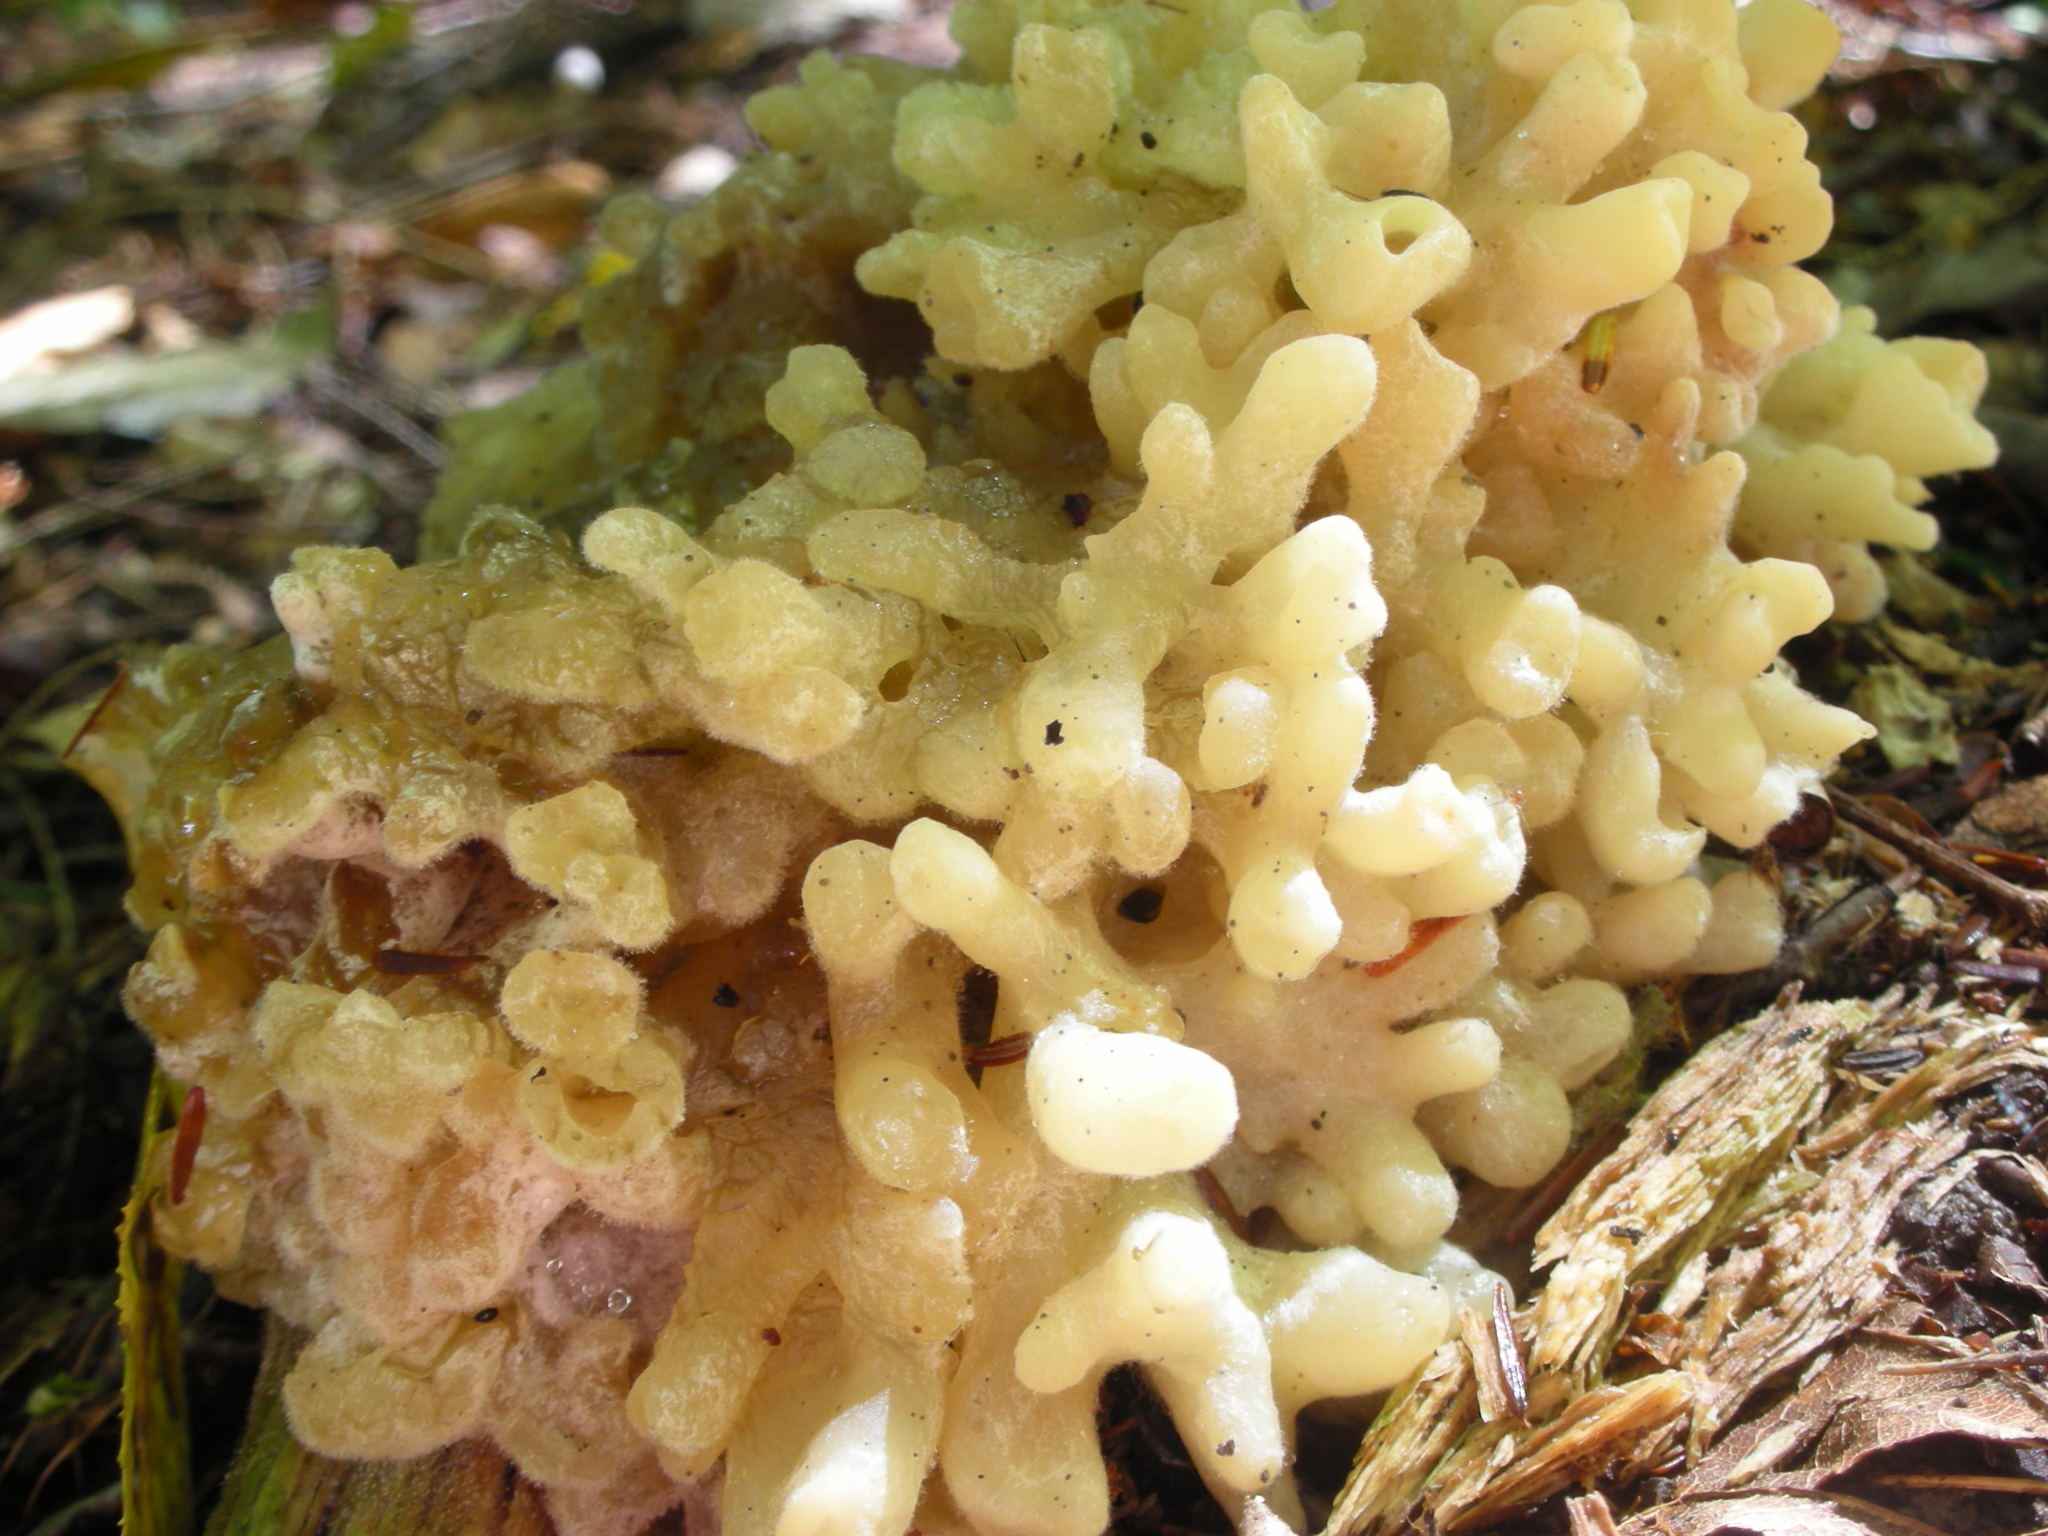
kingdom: Fungi
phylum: Basidiomycota
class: Agaricomycetes
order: Sebacinales
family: Sebacinaceae
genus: Sebacina
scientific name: Sebacina sparassoidea
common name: White coral jelly fungus
